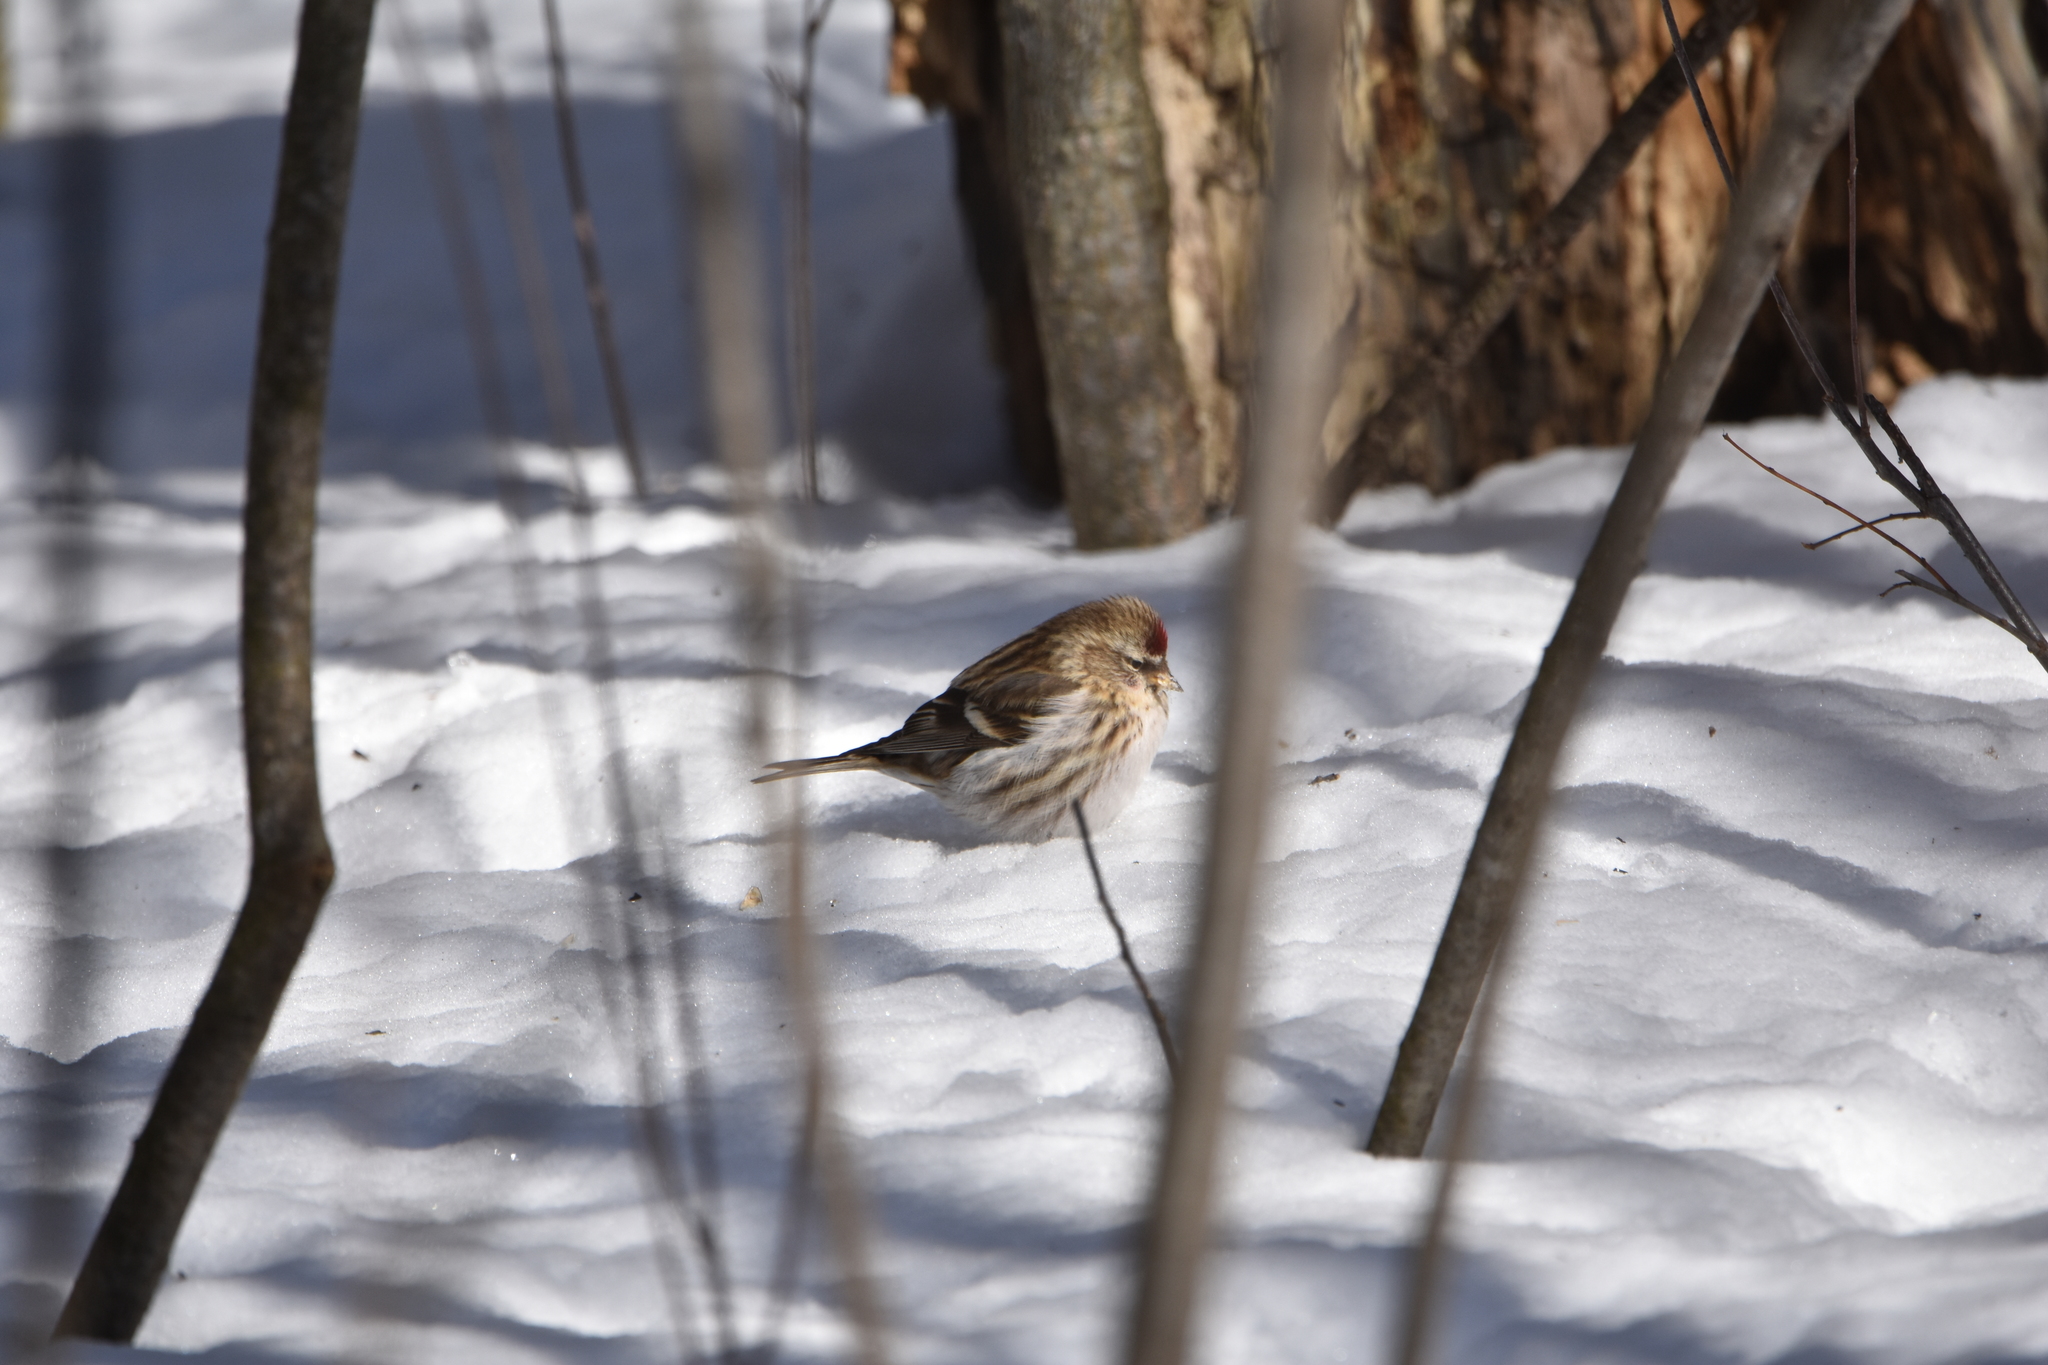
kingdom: Animalia
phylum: Chordata
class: Aves
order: Passeriformes
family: Fringillidae
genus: Acanthis
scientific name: Acanthis flammea
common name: Common redpoll
